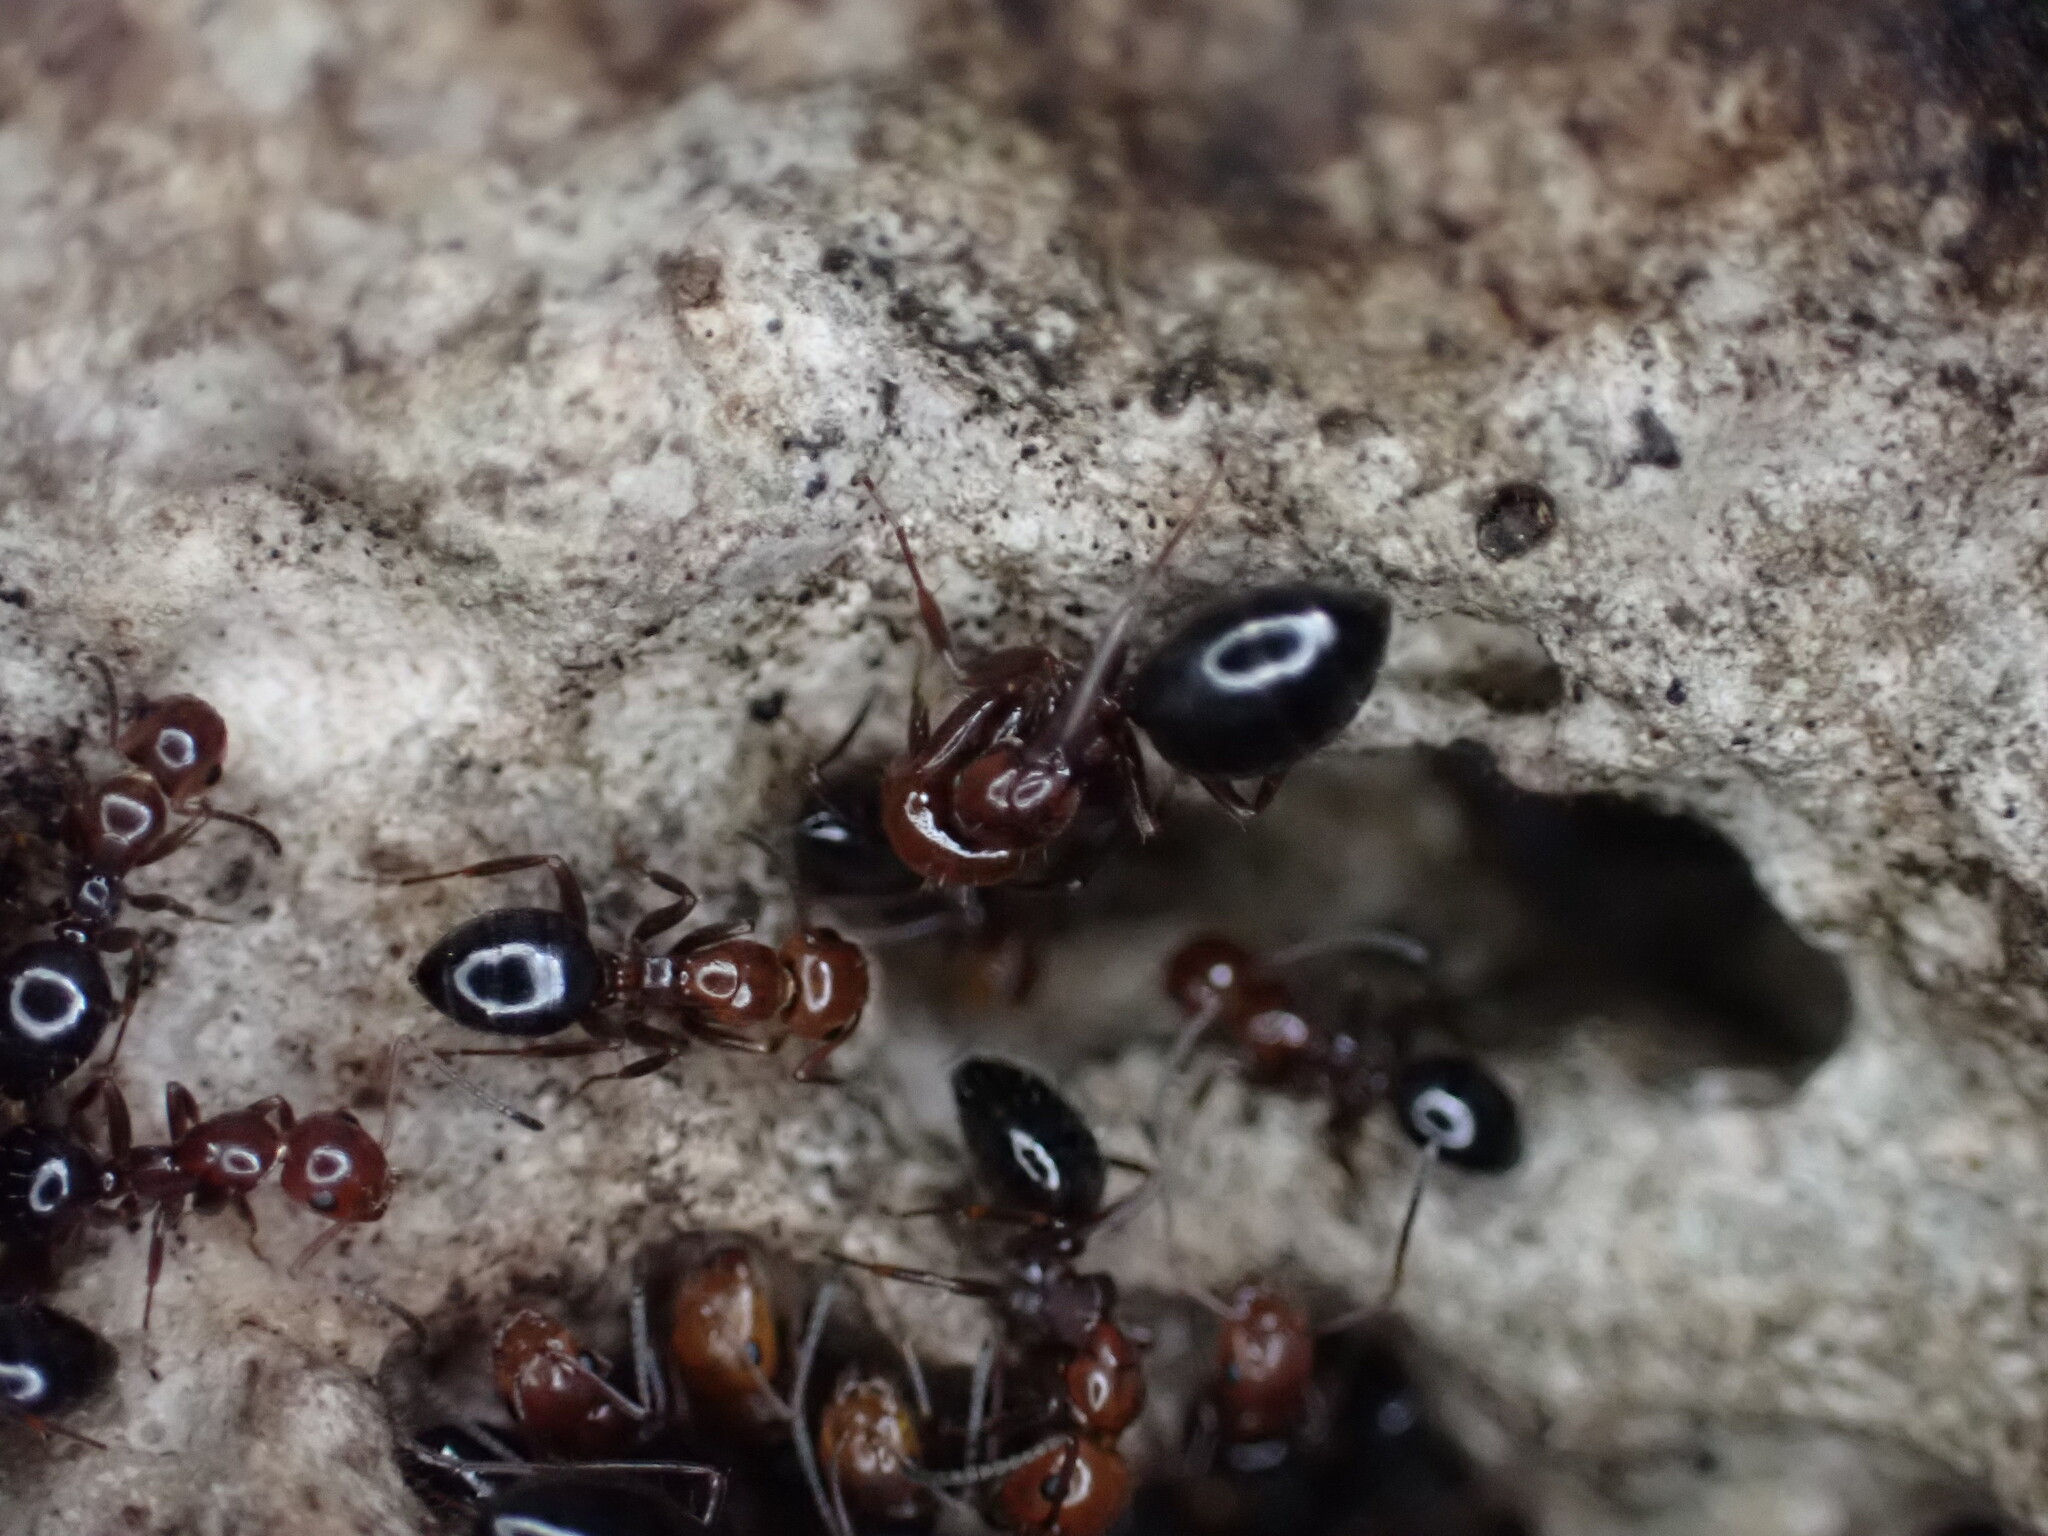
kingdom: Animalia
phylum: Arthropoda
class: Insecta
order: Hymenoptera
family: Formicidae
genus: Camponotus
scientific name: Camponotus lateralis
